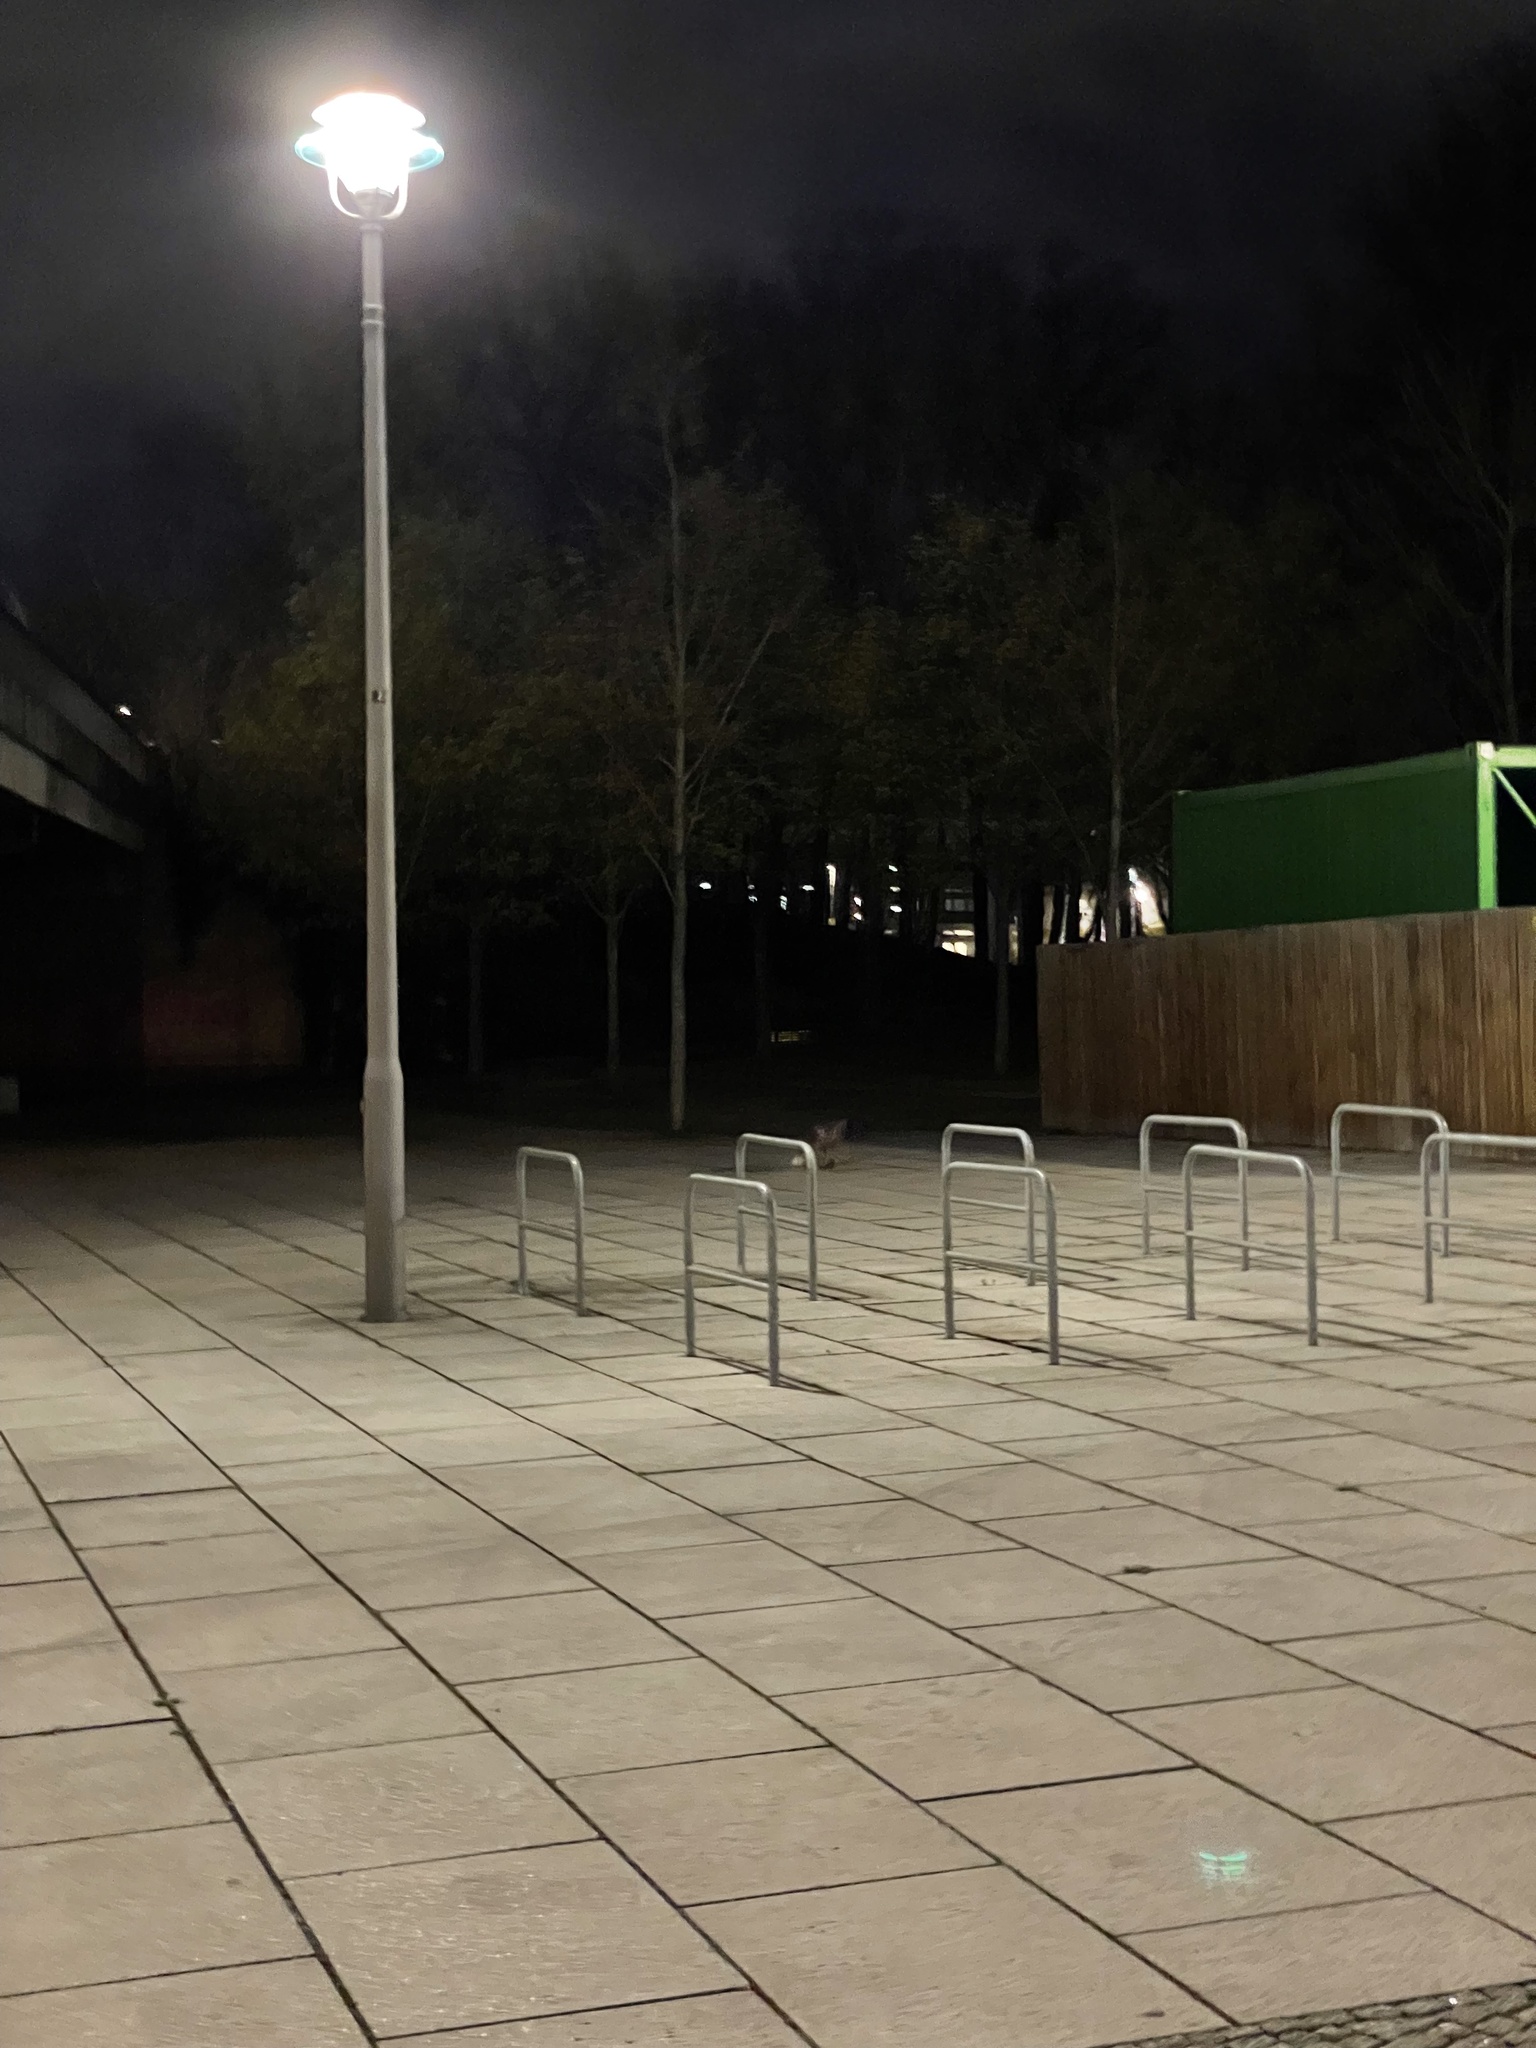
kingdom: Animalia
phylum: Chordata
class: Mammalia
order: Carnivora
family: Canidae
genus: Vulpes
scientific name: Vulpes vulpes
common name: Red fox
